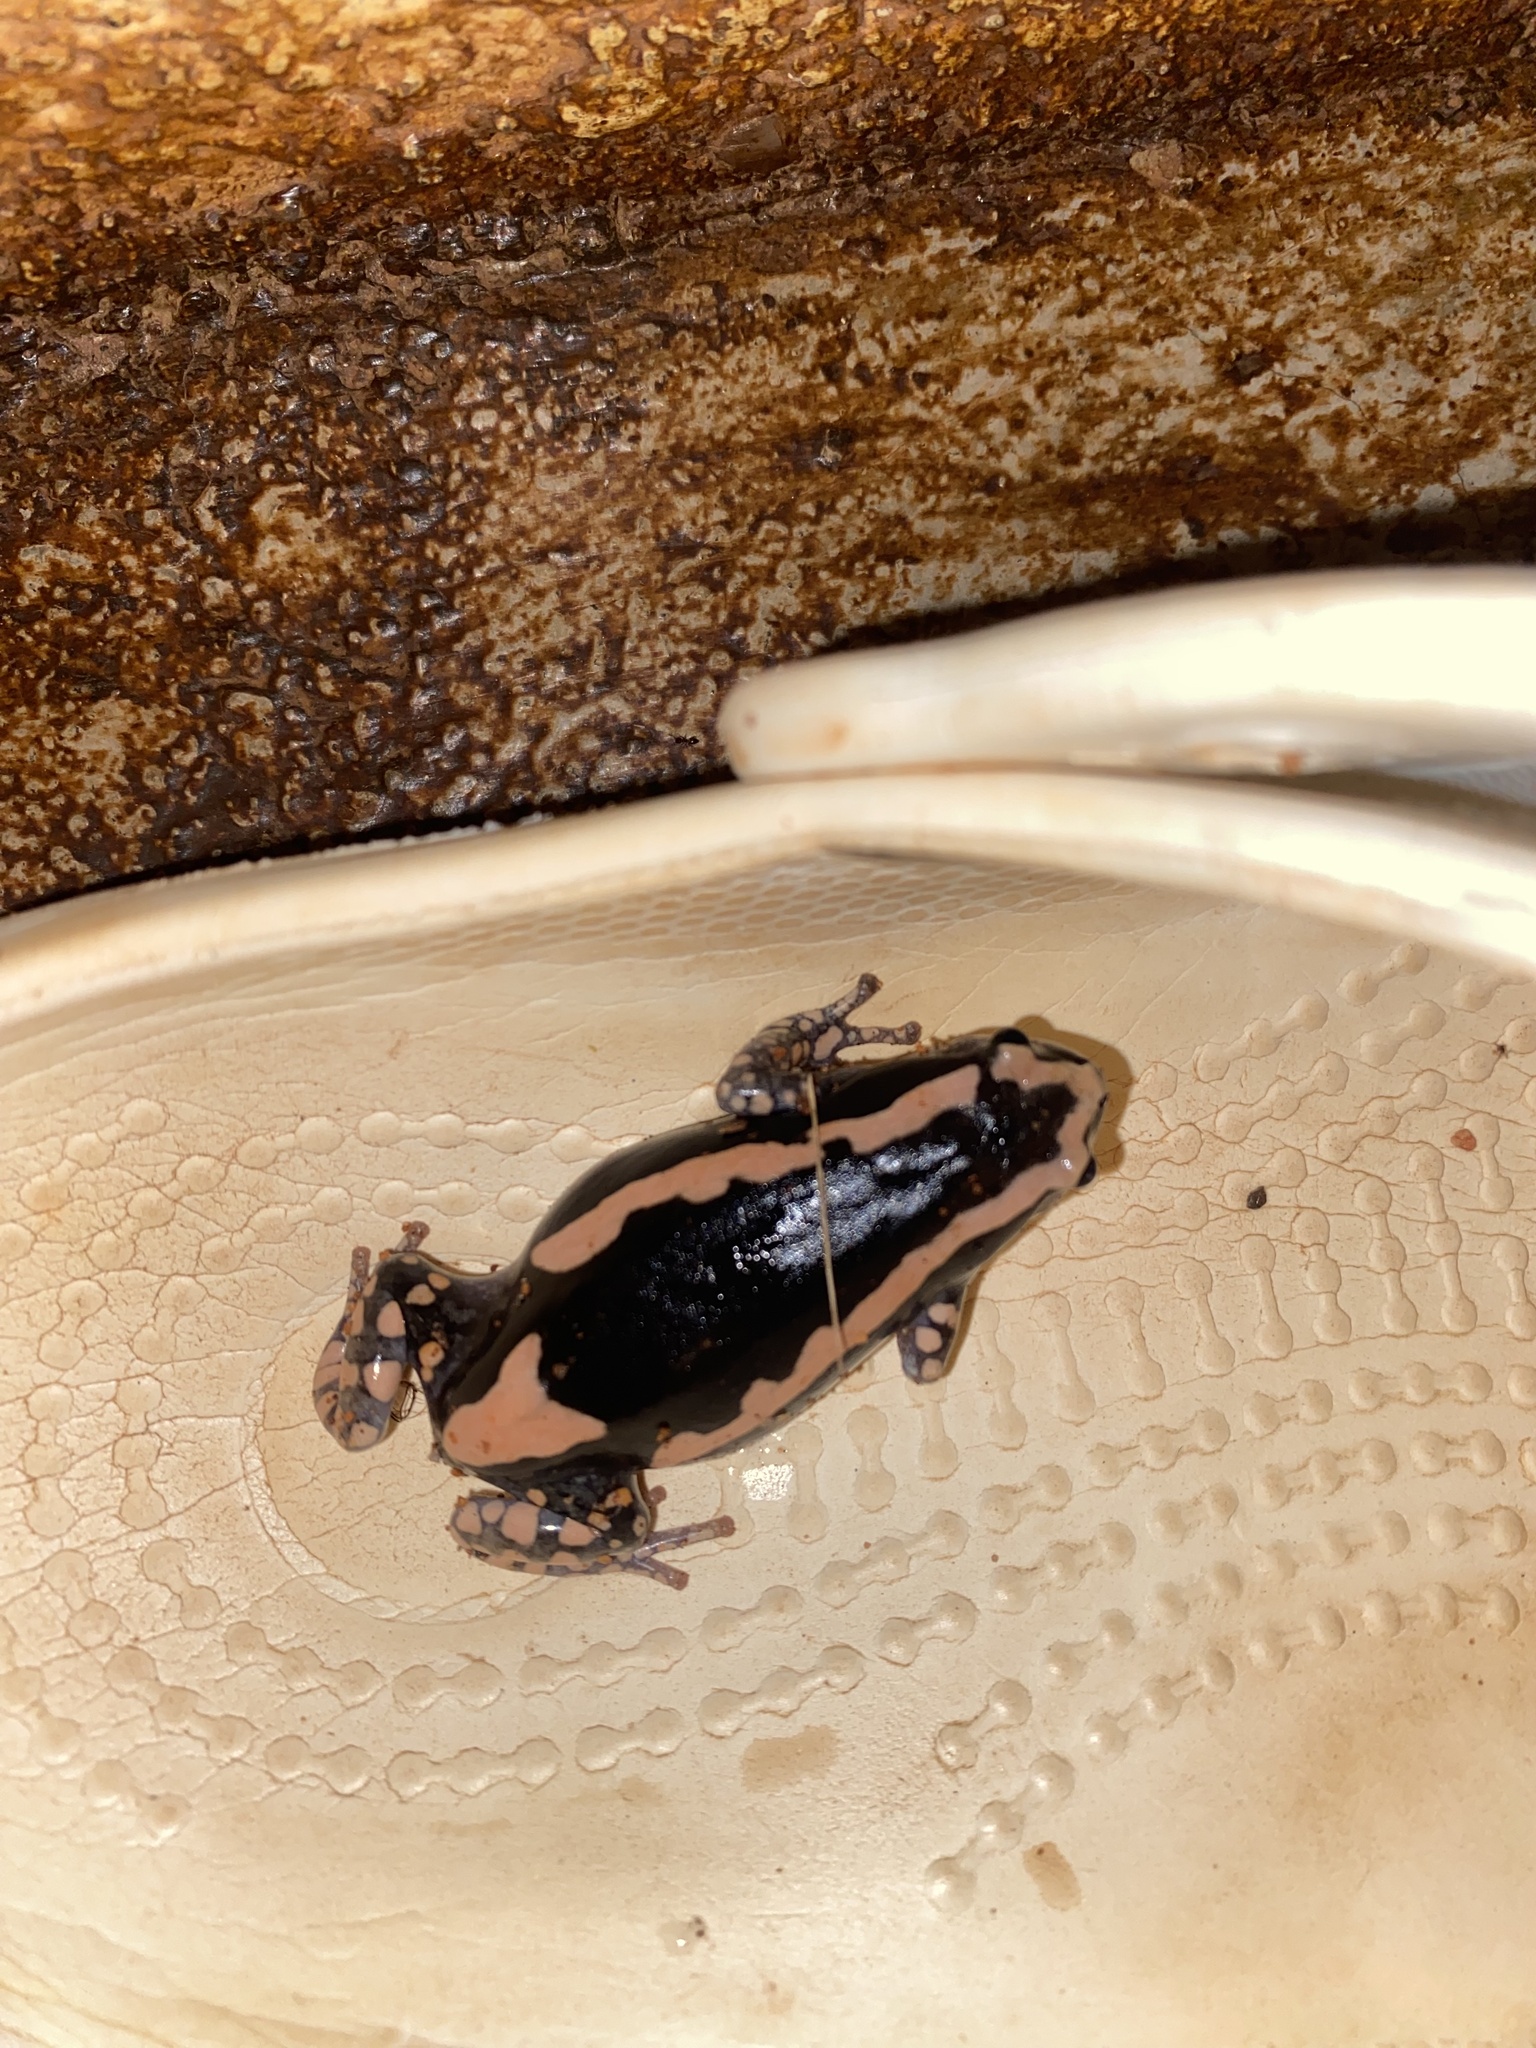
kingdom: Animalia
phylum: Chordata
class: Amphibia
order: Anura
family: Microhylidae
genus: Phrynomantis
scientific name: Phrynomantis bifasciatus
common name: Banded rubber frog
